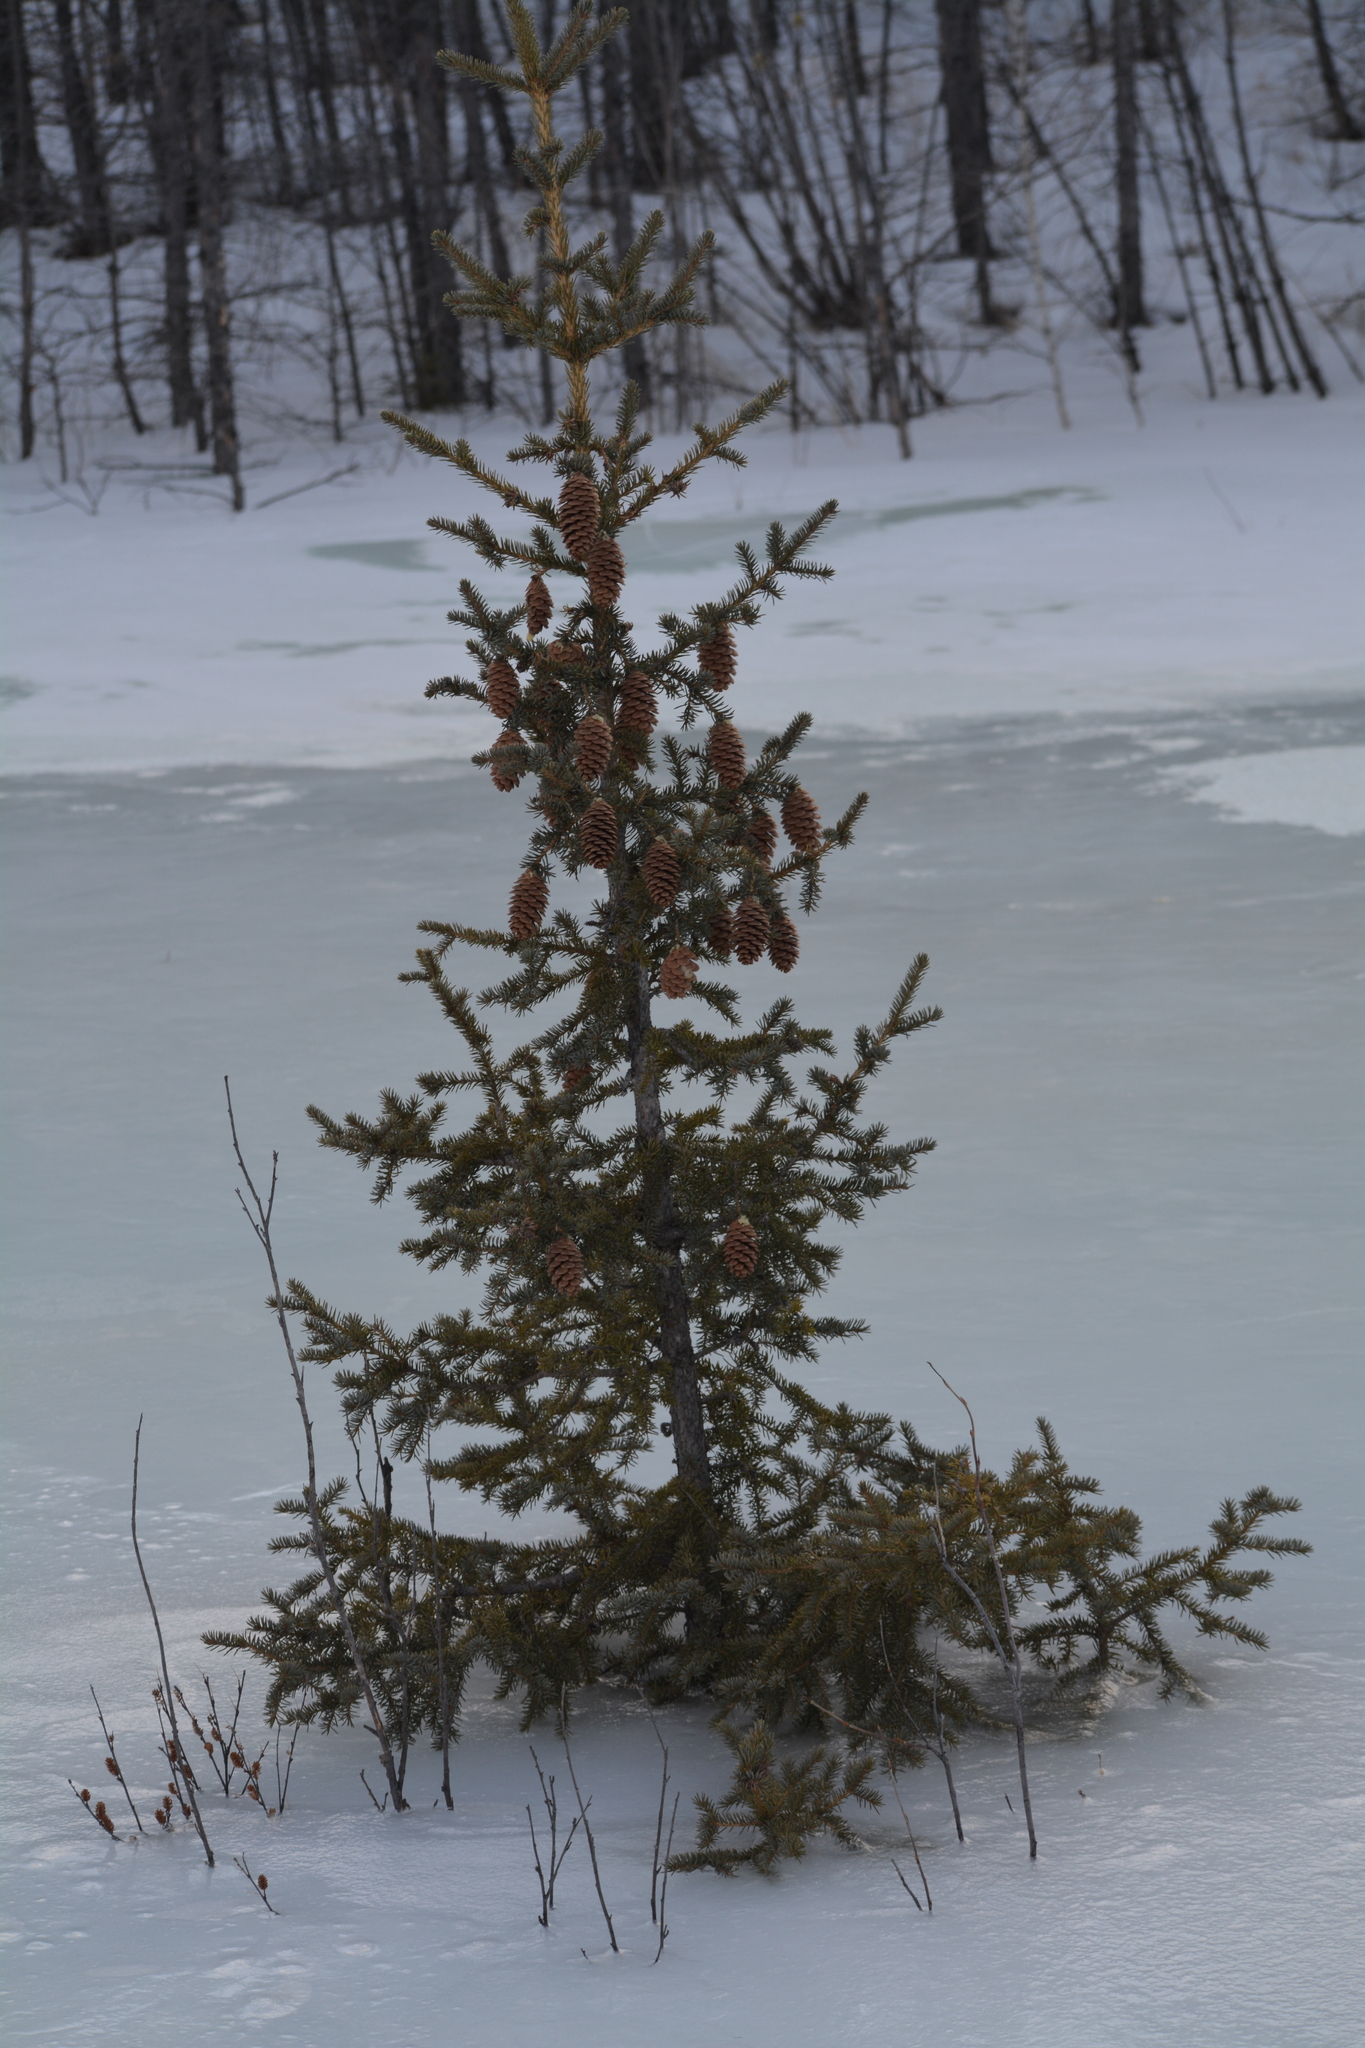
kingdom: Plantae
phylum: Tracheophyta
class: Pinopsida
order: Pinales
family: Pinaceae
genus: Picea
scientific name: Picea obovata
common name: Siberian spruce
